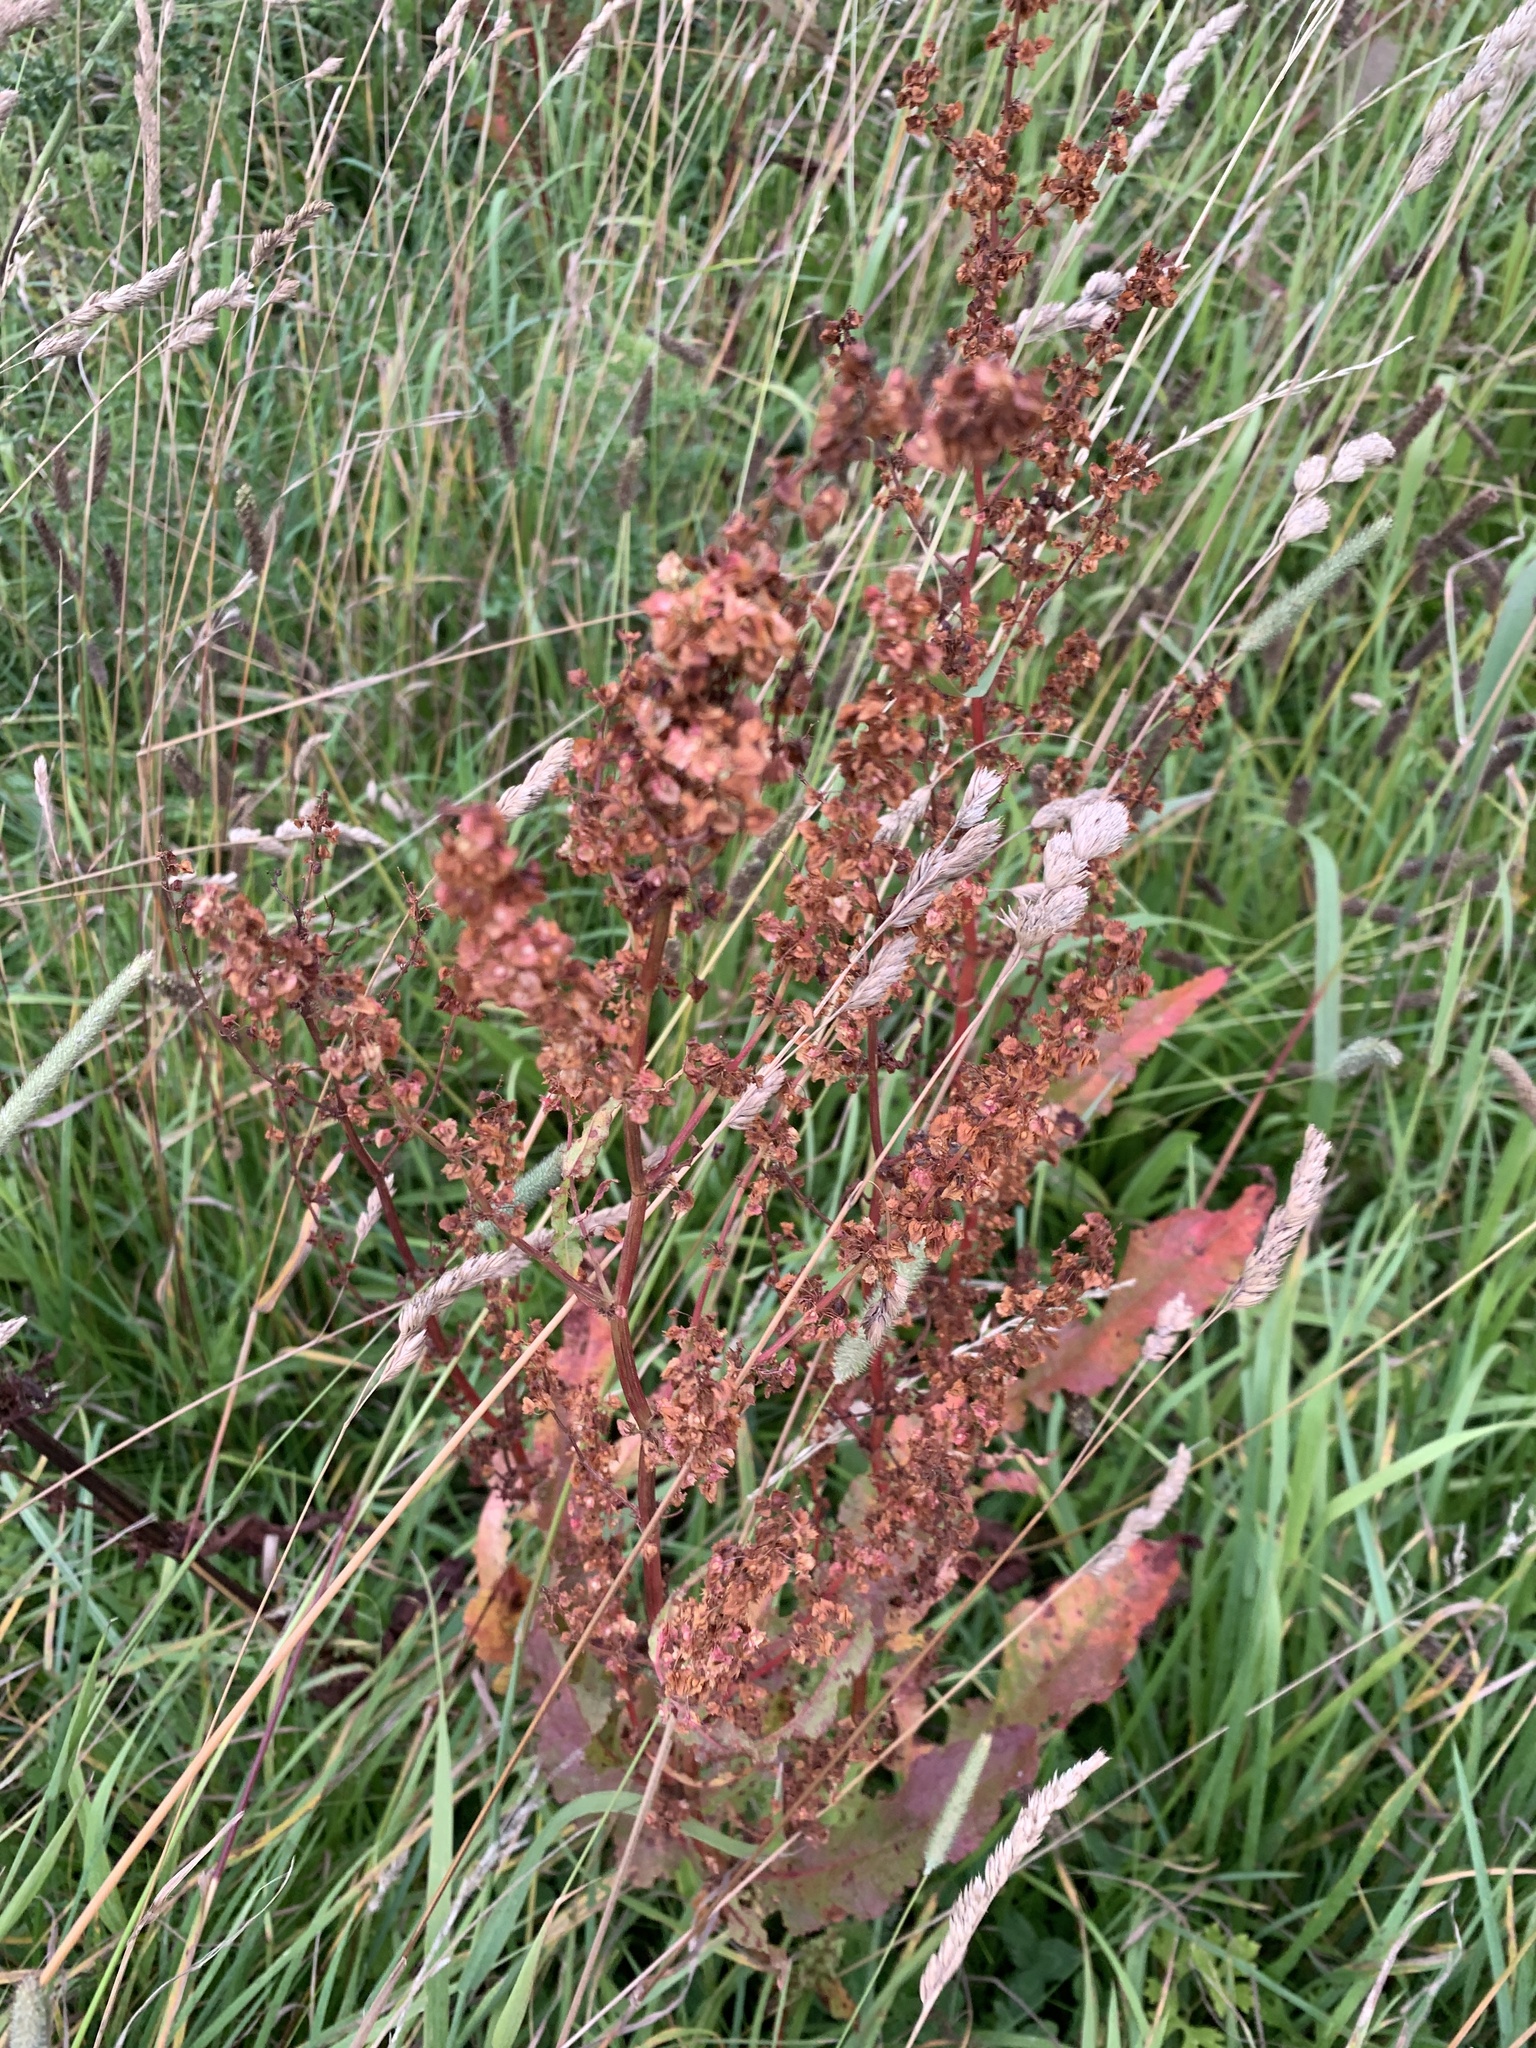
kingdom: Plantae
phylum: Tracheophyta
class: Magnoliopsida
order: Caryophyllales
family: Polygonaceae
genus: Rumex
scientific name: Rumex crispus
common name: Curled dock
